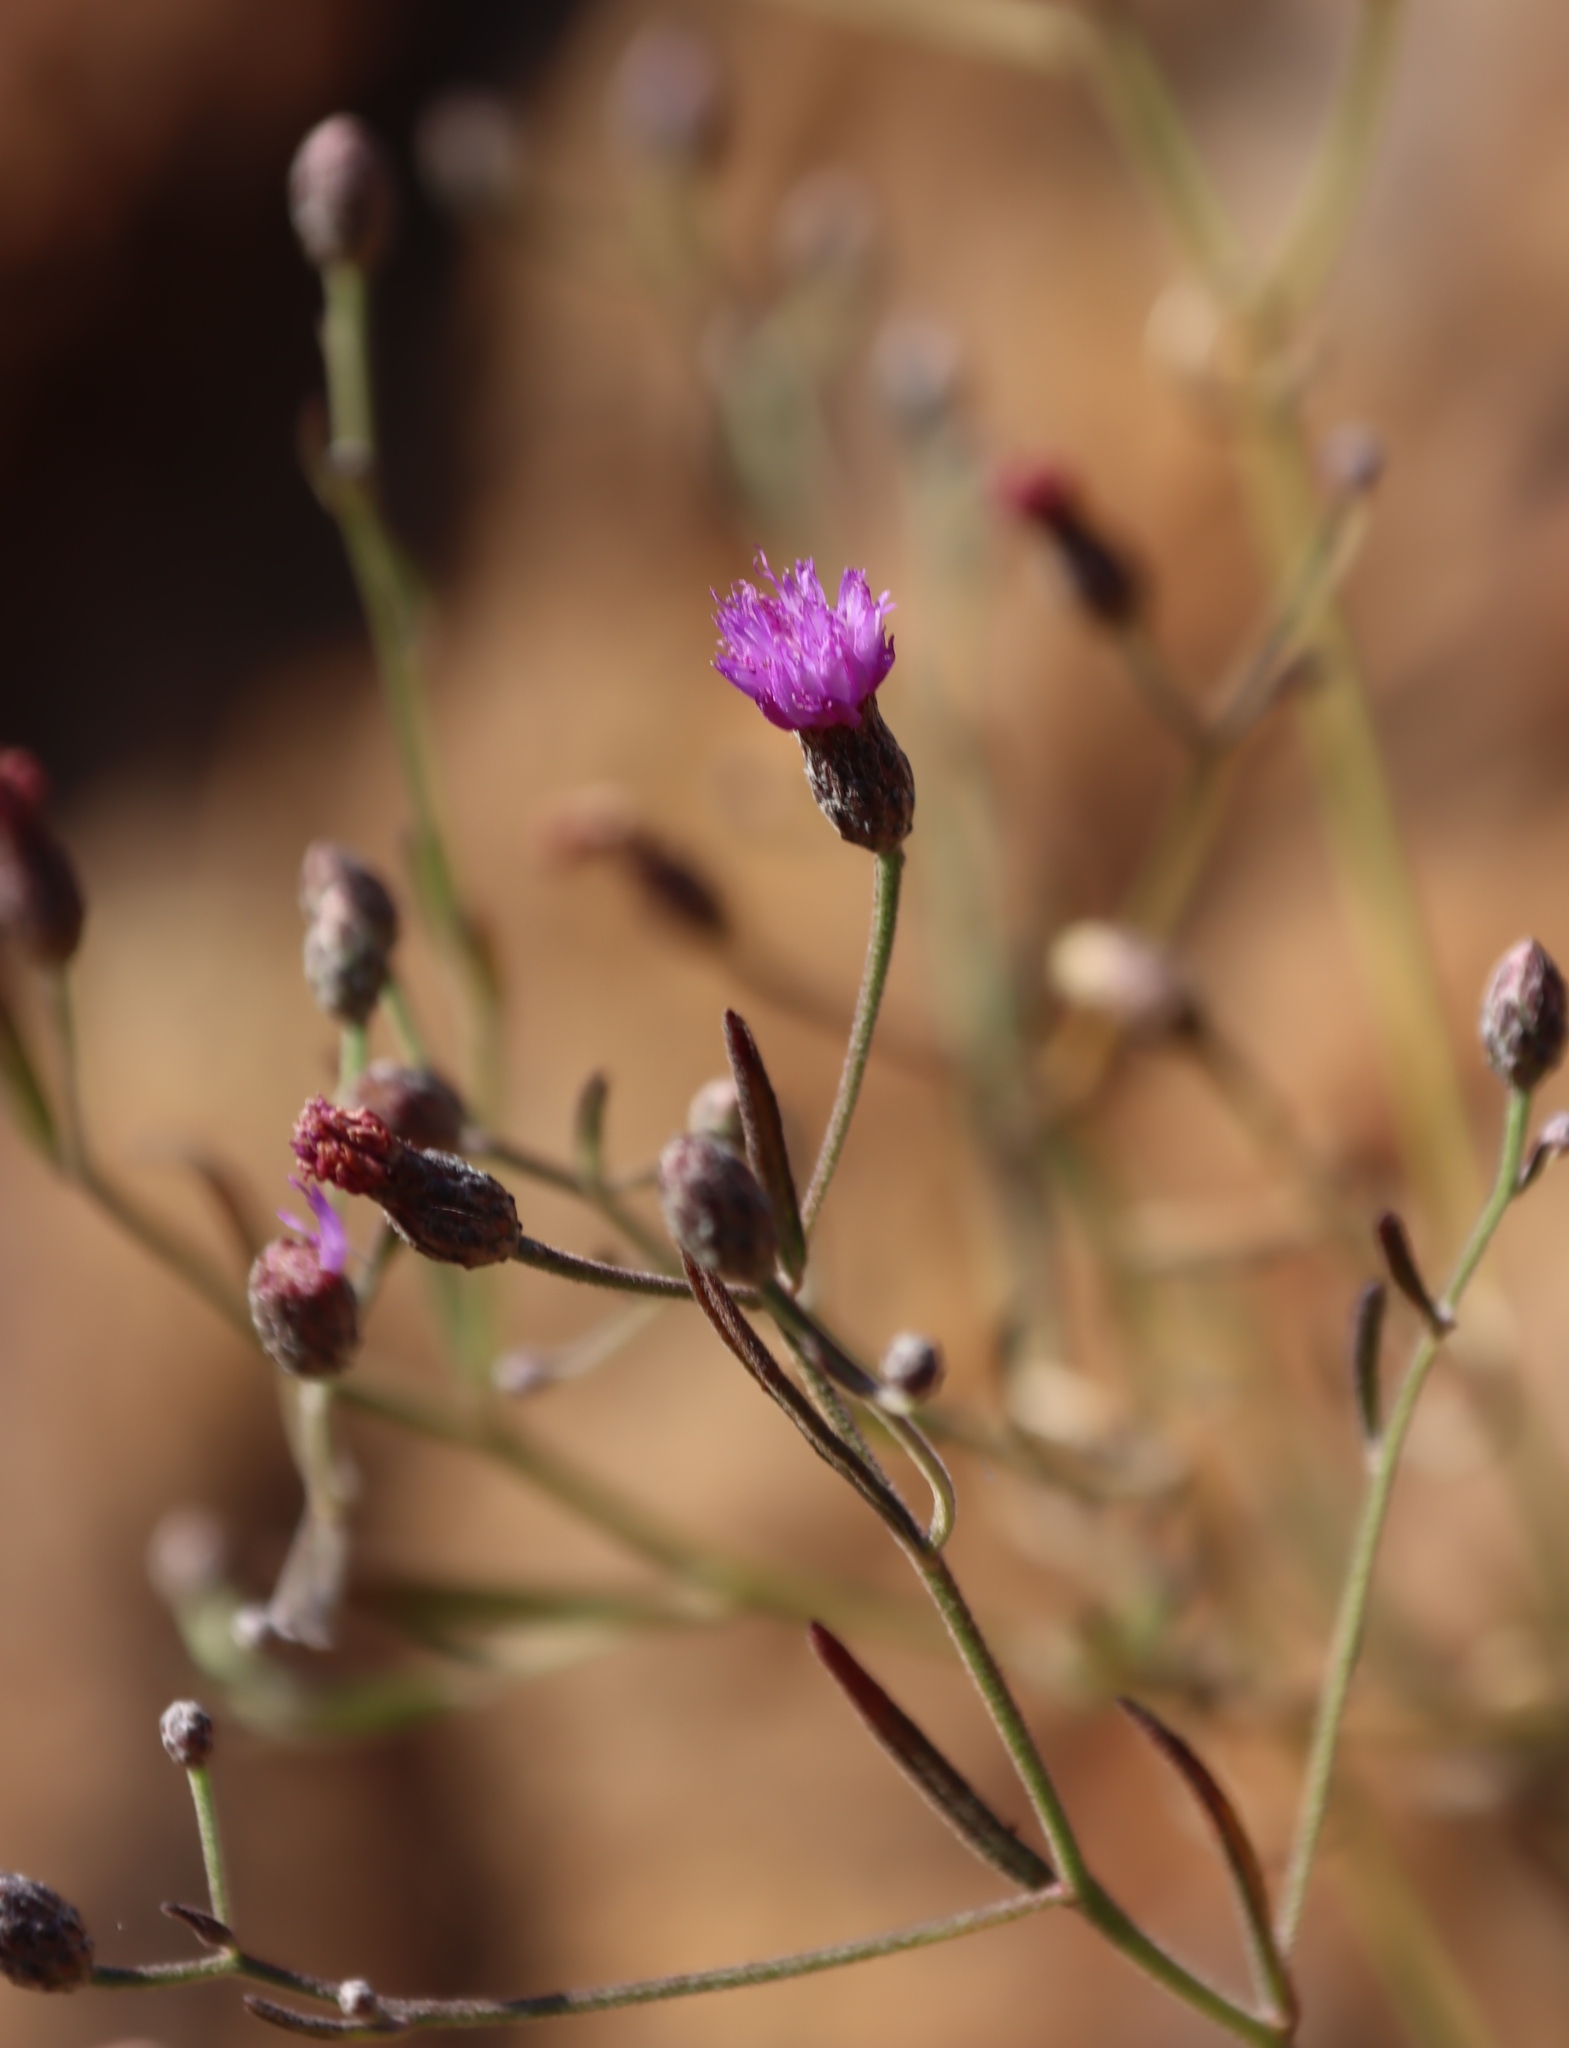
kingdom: Plantae
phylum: Tracheophyta
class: Magnoliopsida
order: Asterales
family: Asteraceae
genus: Crystallopollen
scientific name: Crystallopollen angustifolium
